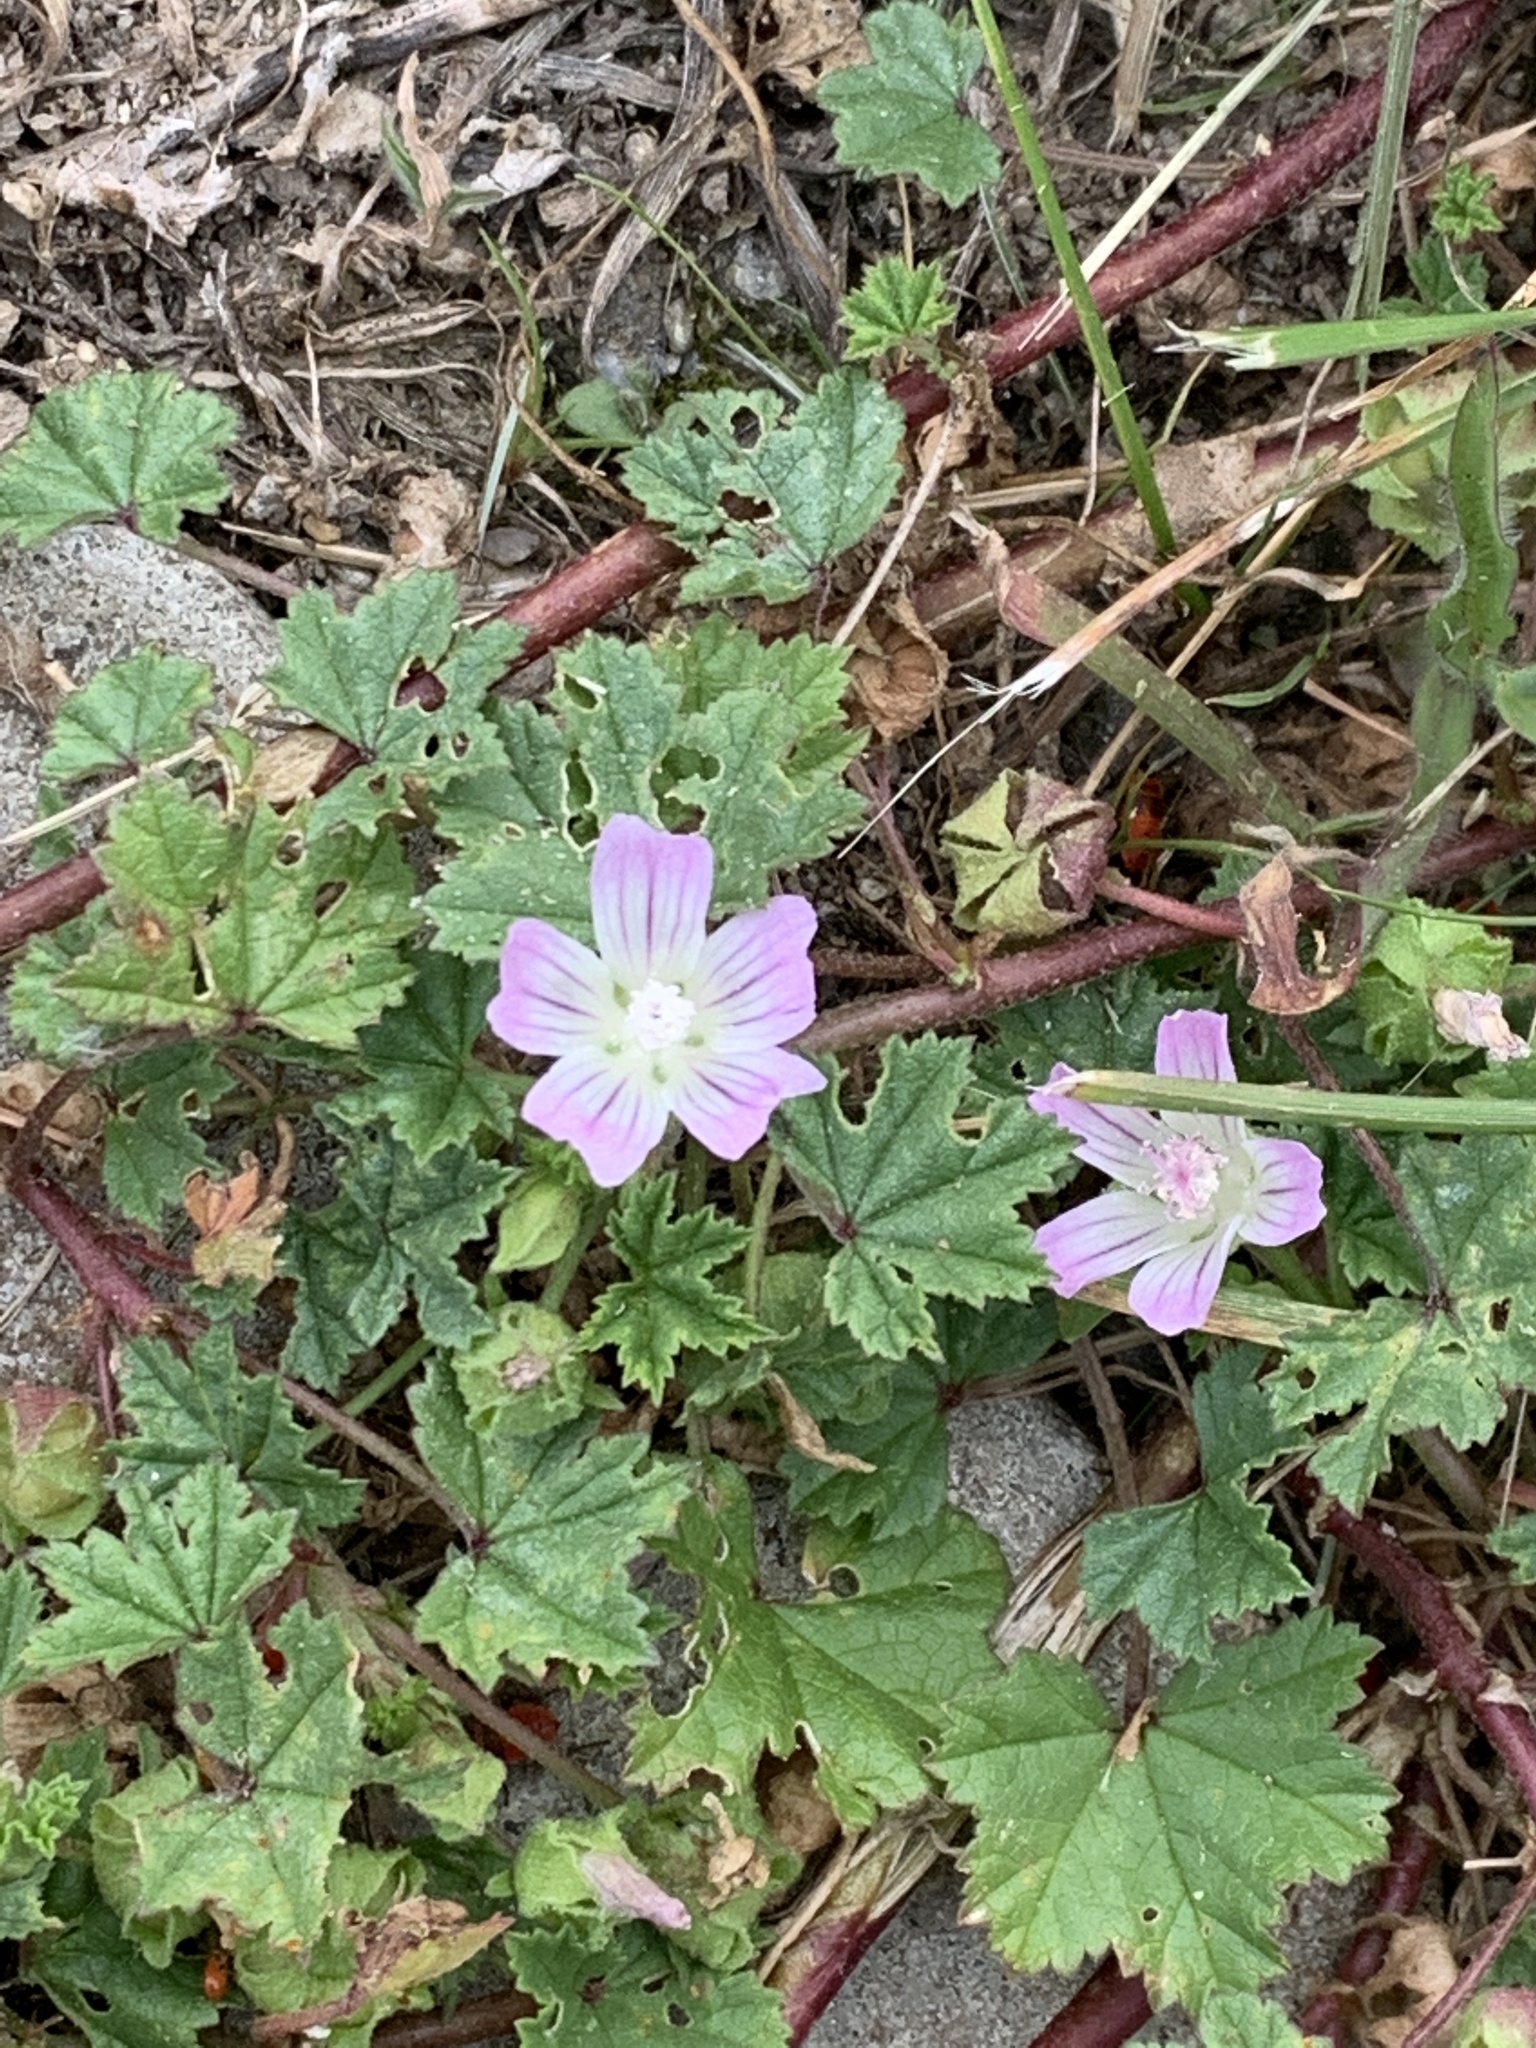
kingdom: Plantae
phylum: Tracheophyta
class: Magnoliopsida
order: Malvales
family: Malvaceae
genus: Malva
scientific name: Malva neglecta
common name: Common mallow
